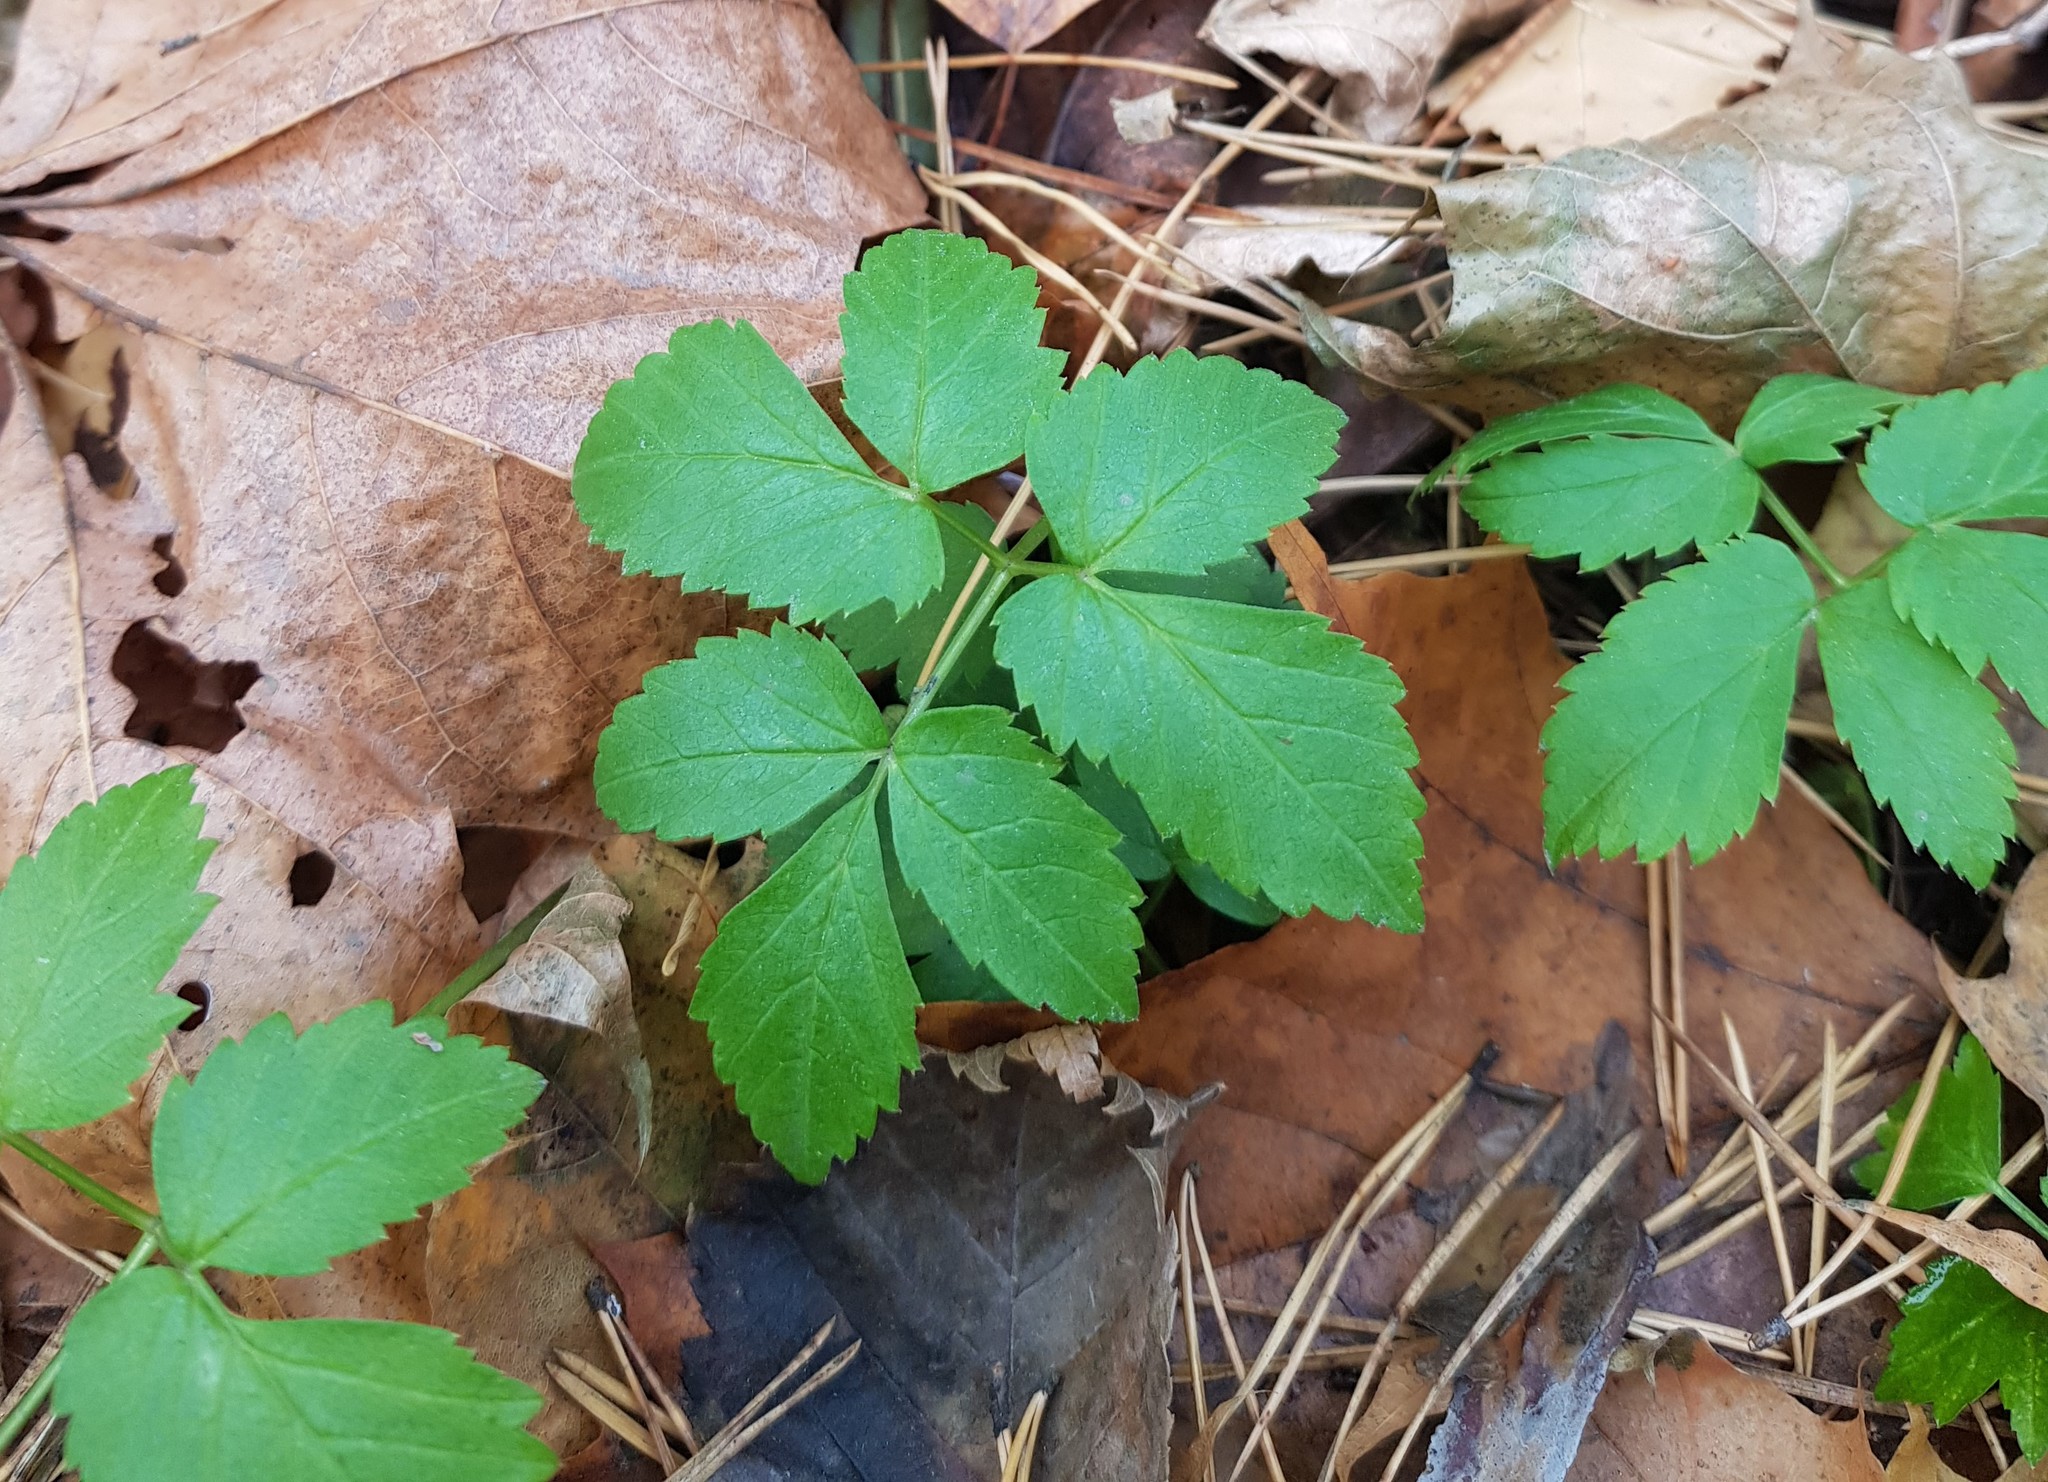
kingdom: Plantae
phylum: Tracheophyta
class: Magnoliopsida
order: Apiales
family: Apiaceae
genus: Aegopodium
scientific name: Aegopodium podagraria
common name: Ground-elder
